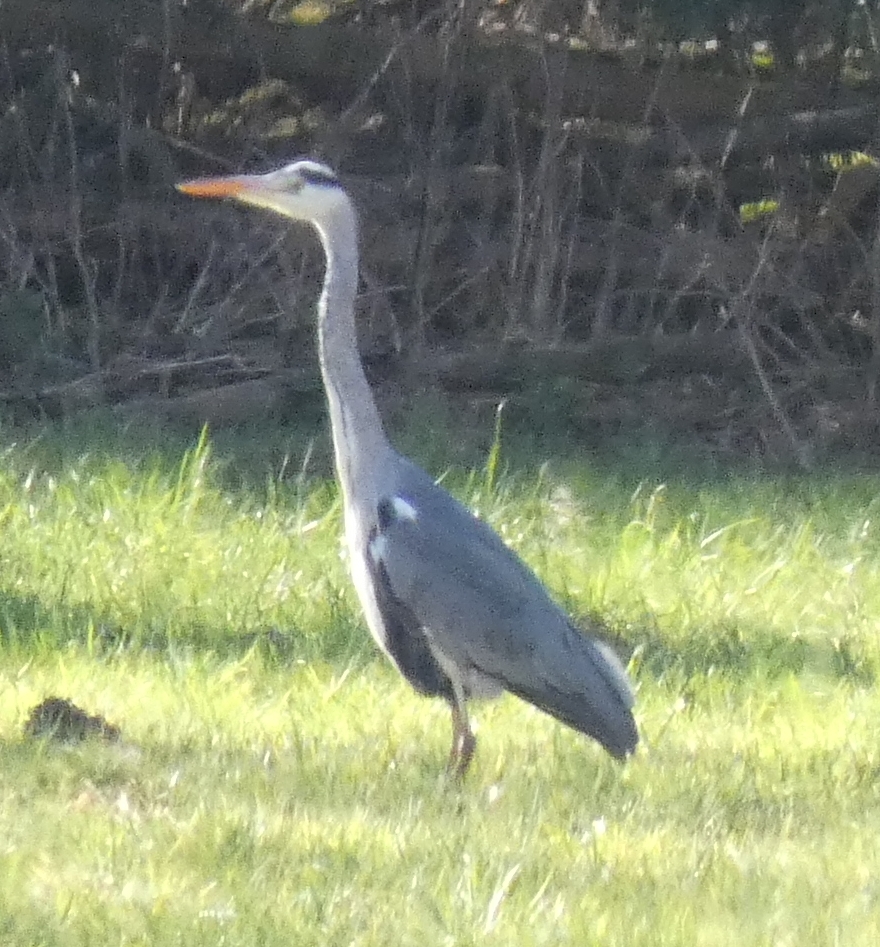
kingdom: Animalia
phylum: Chordata
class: Aves
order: Pelecaniformes
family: Ardeidae
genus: Ardea
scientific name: Ardea cinerea
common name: Grey heron
